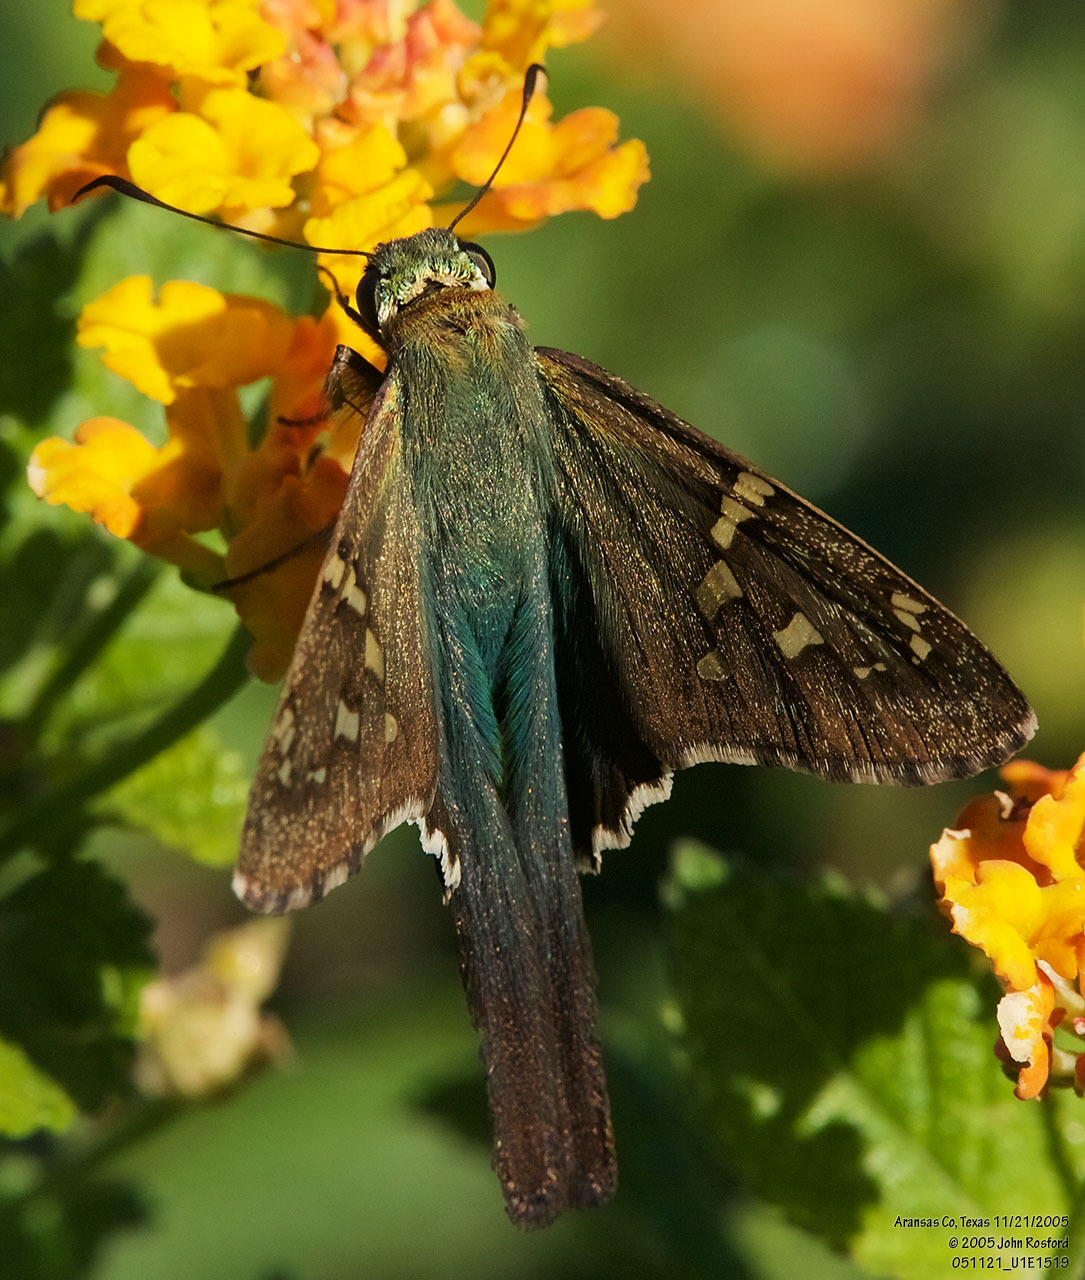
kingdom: Animalia
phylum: Arthropoda
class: Insecta
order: Lepidoptera
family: Hesperiidae
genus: Urbanus
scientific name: Urbanus proteus
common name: Long-tailed skipper
